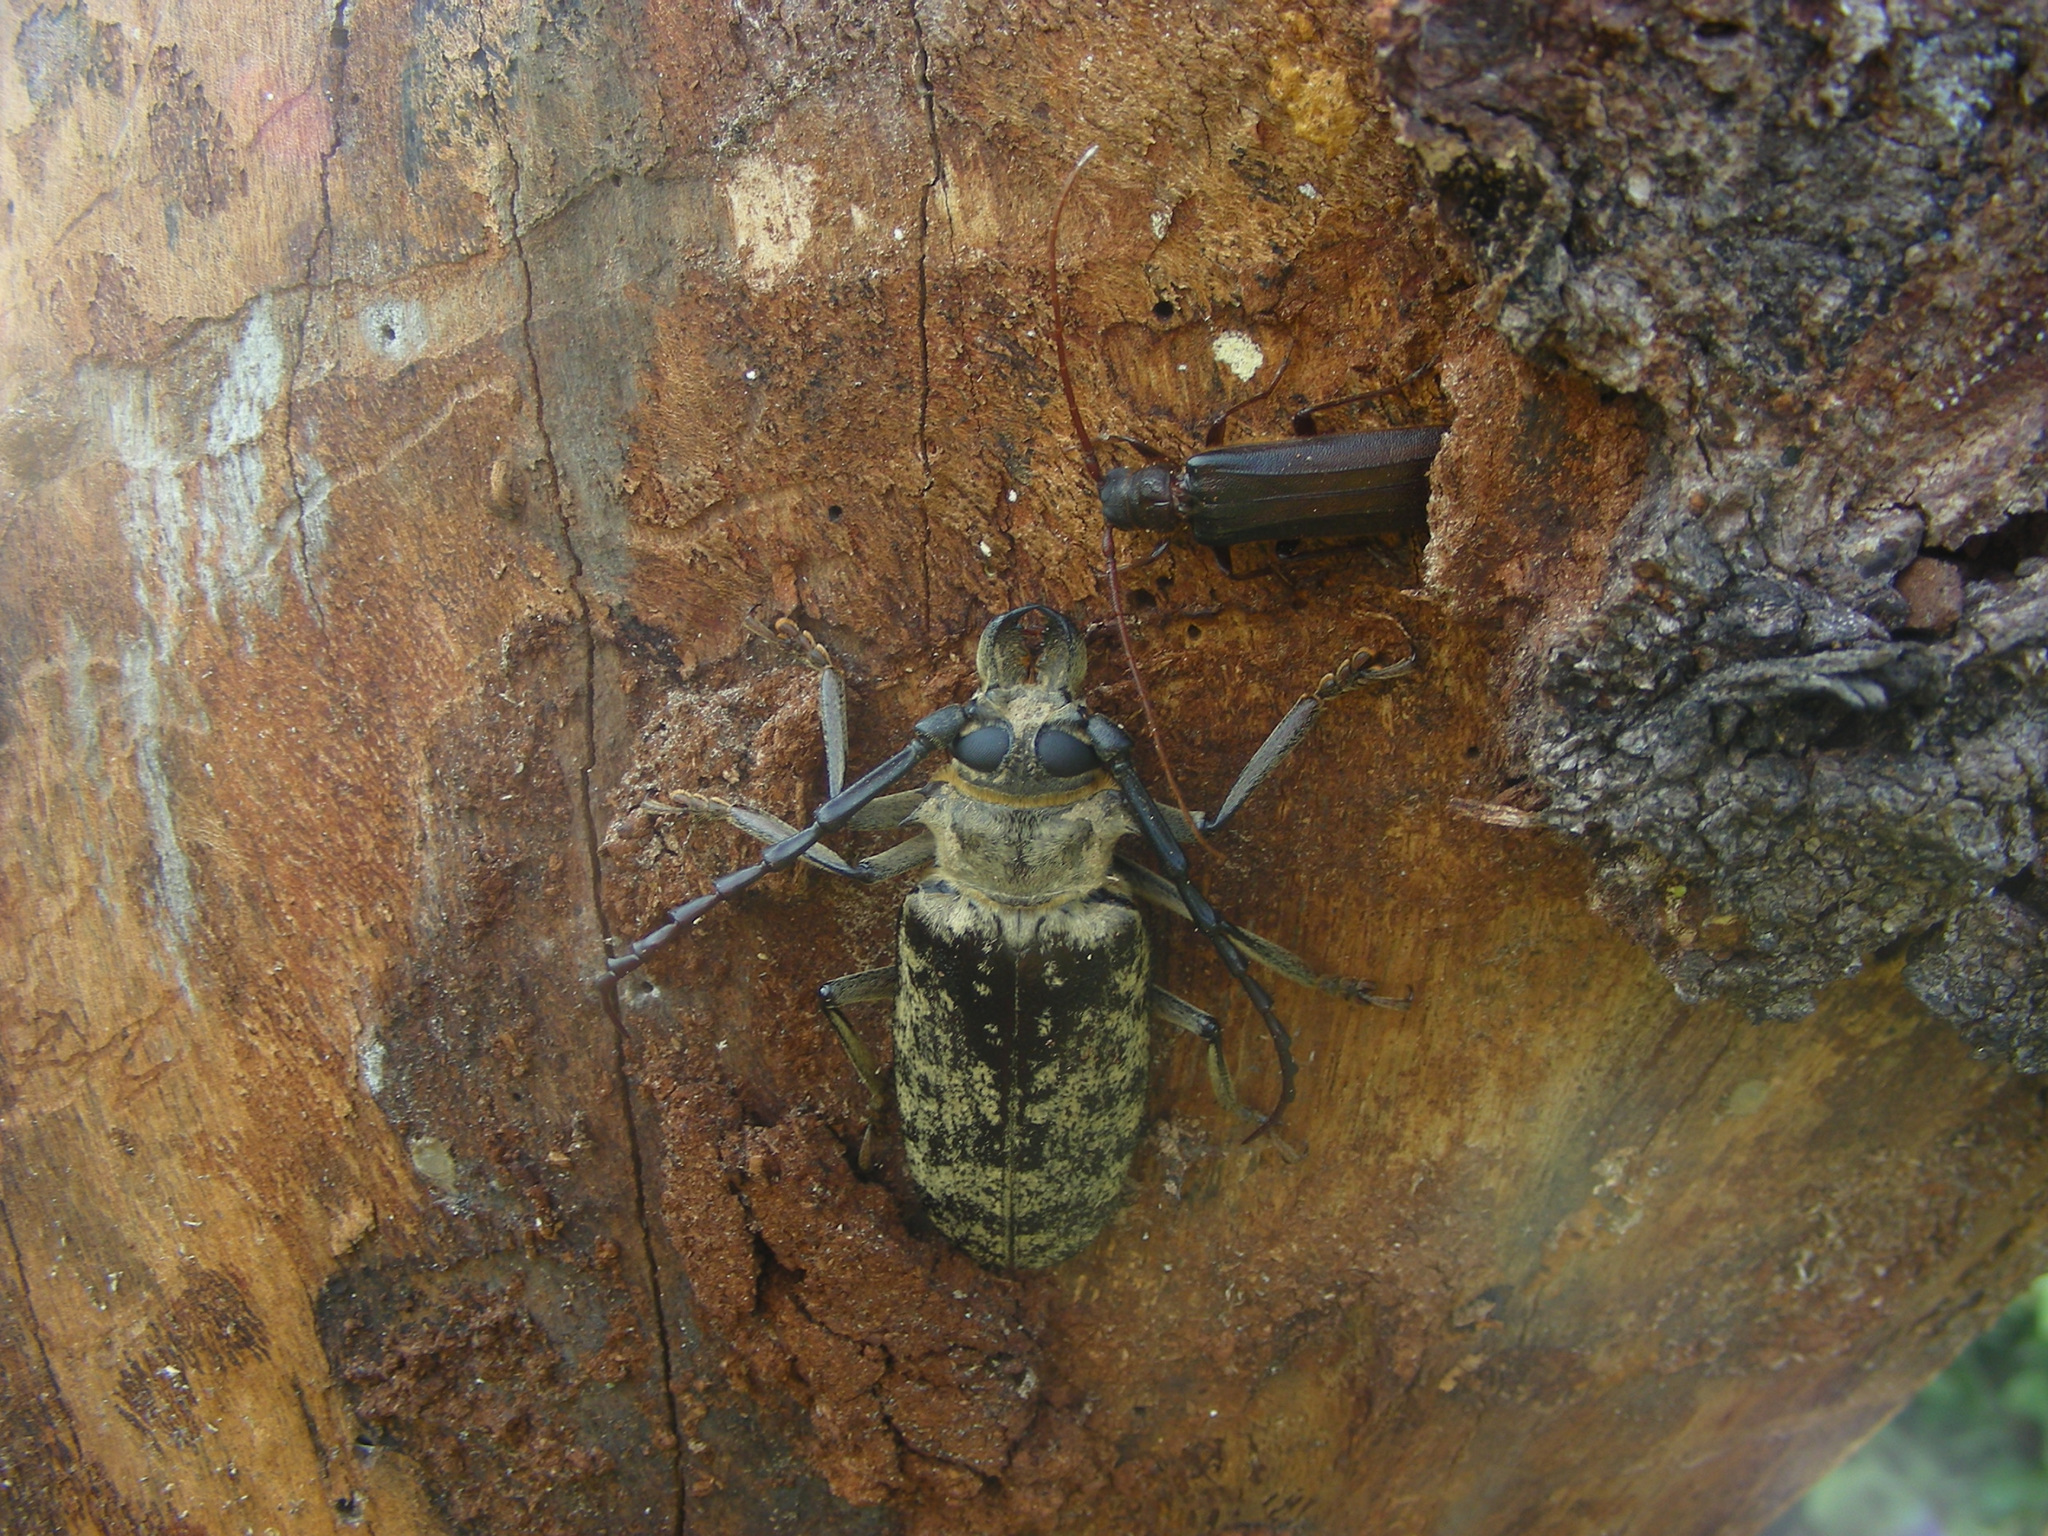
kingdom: Animalia
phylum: Arthropoda
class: Insecta
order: Coleoptera
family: Cerambycidae
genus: Tithoes
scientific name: Tithoes maculatus
